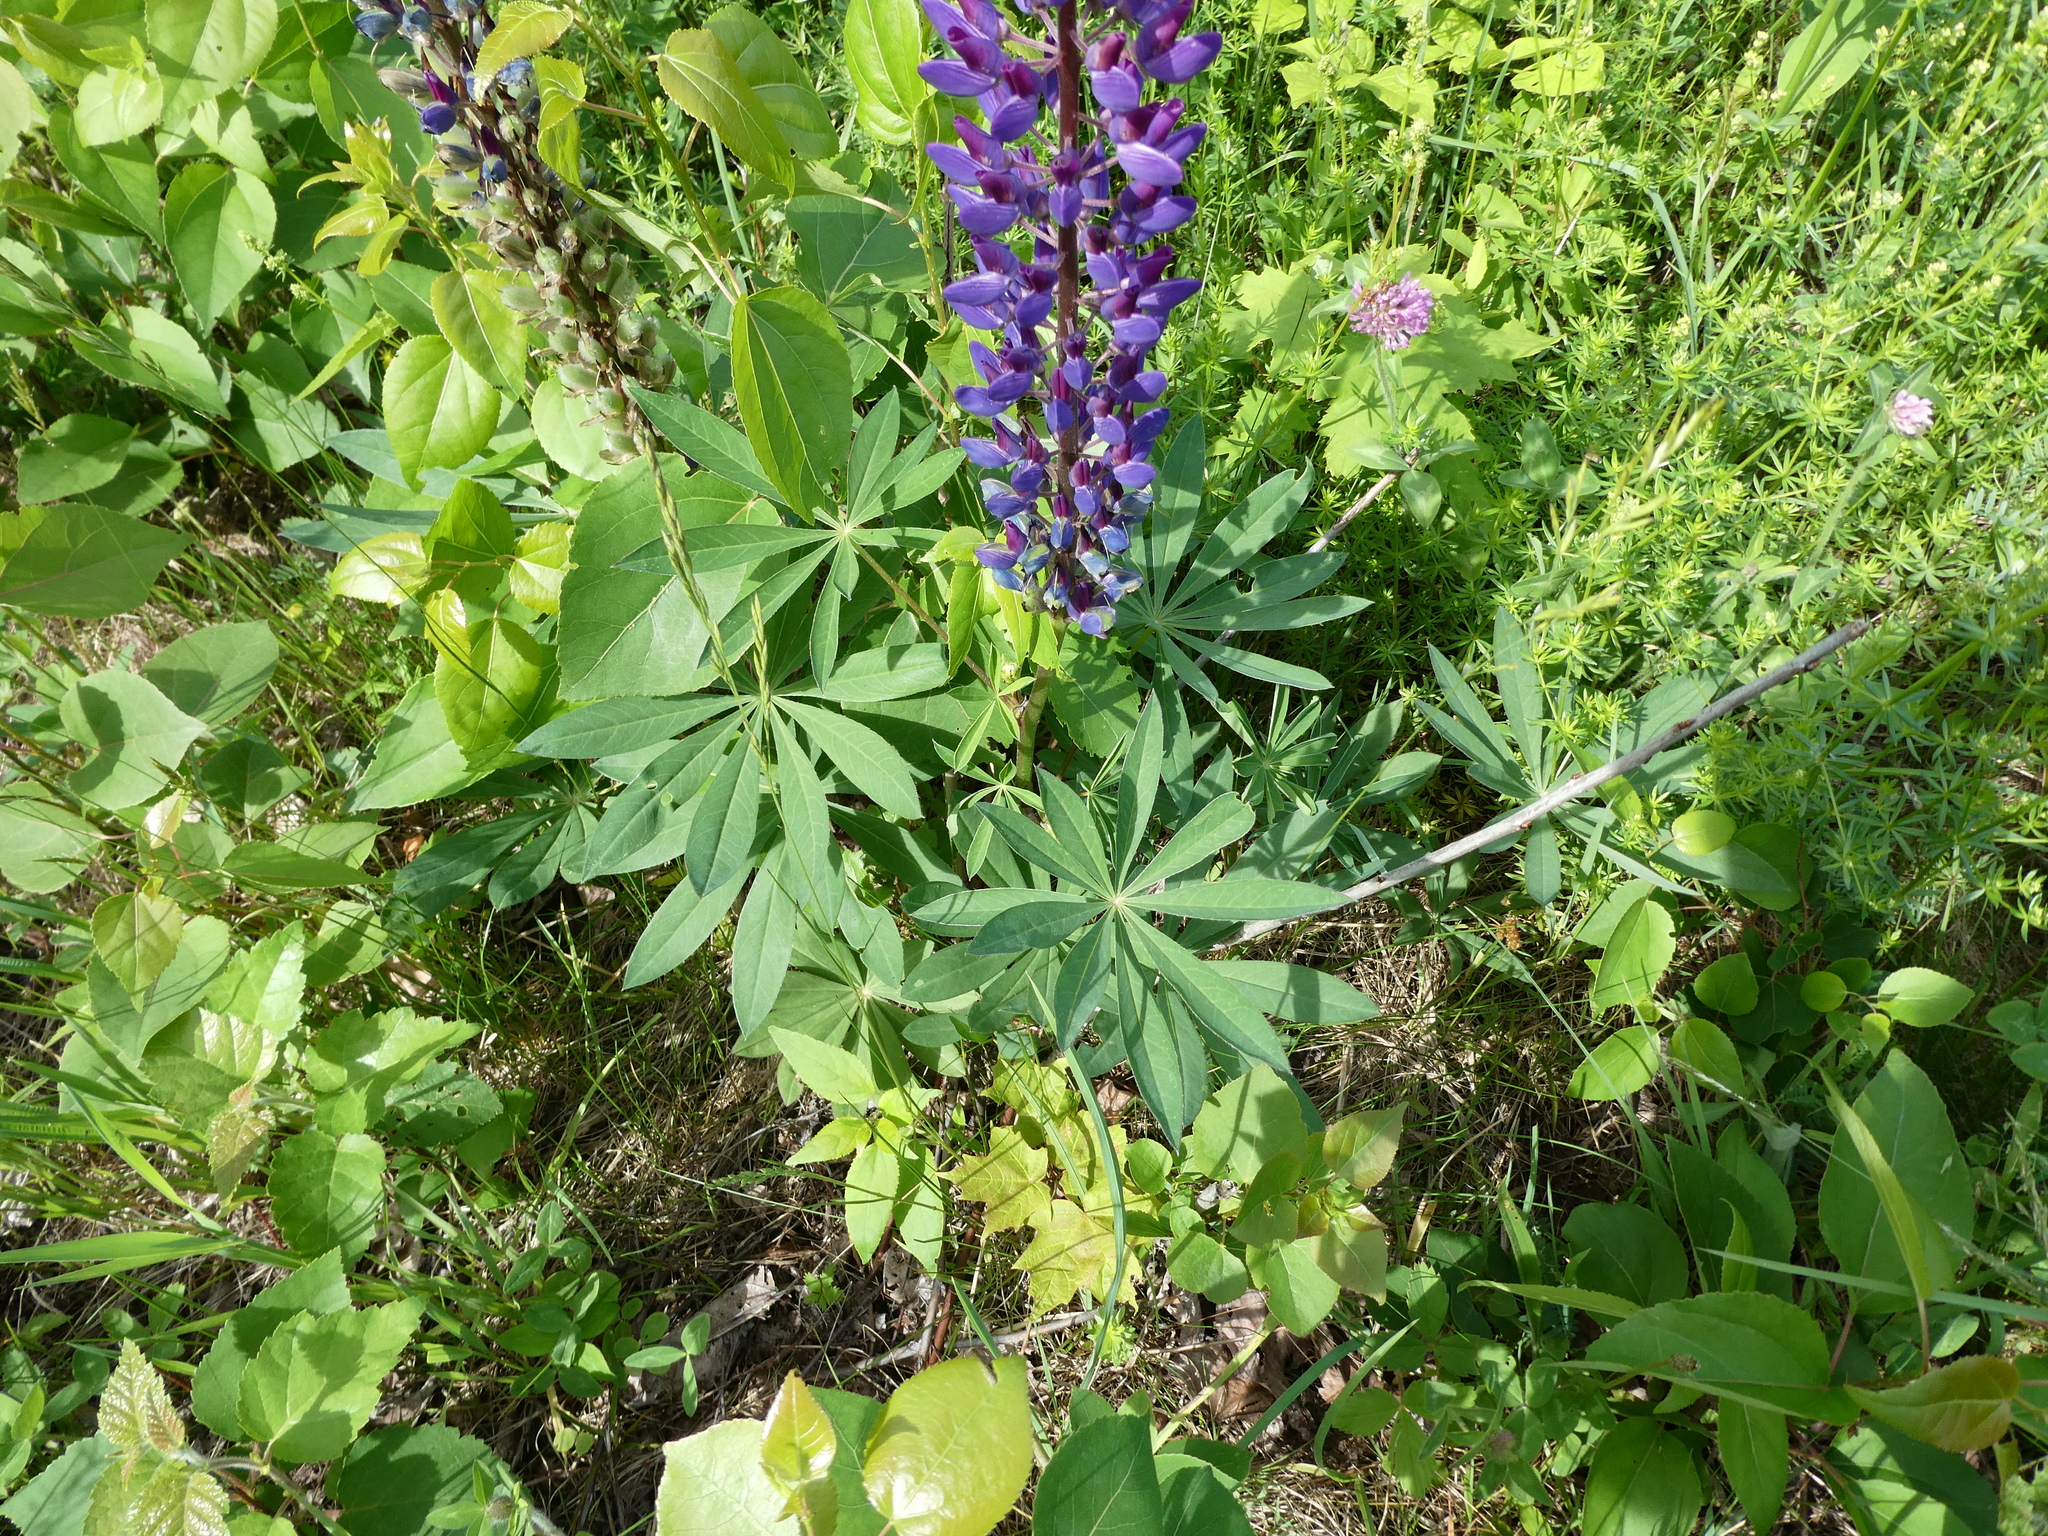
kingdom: Plantae
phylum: Tracheophyta
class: Magnoliopsida
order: Fabales
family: Fabaceae
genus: Lupinus
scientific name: Lupinus polyphyllus
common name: Garden lupin
